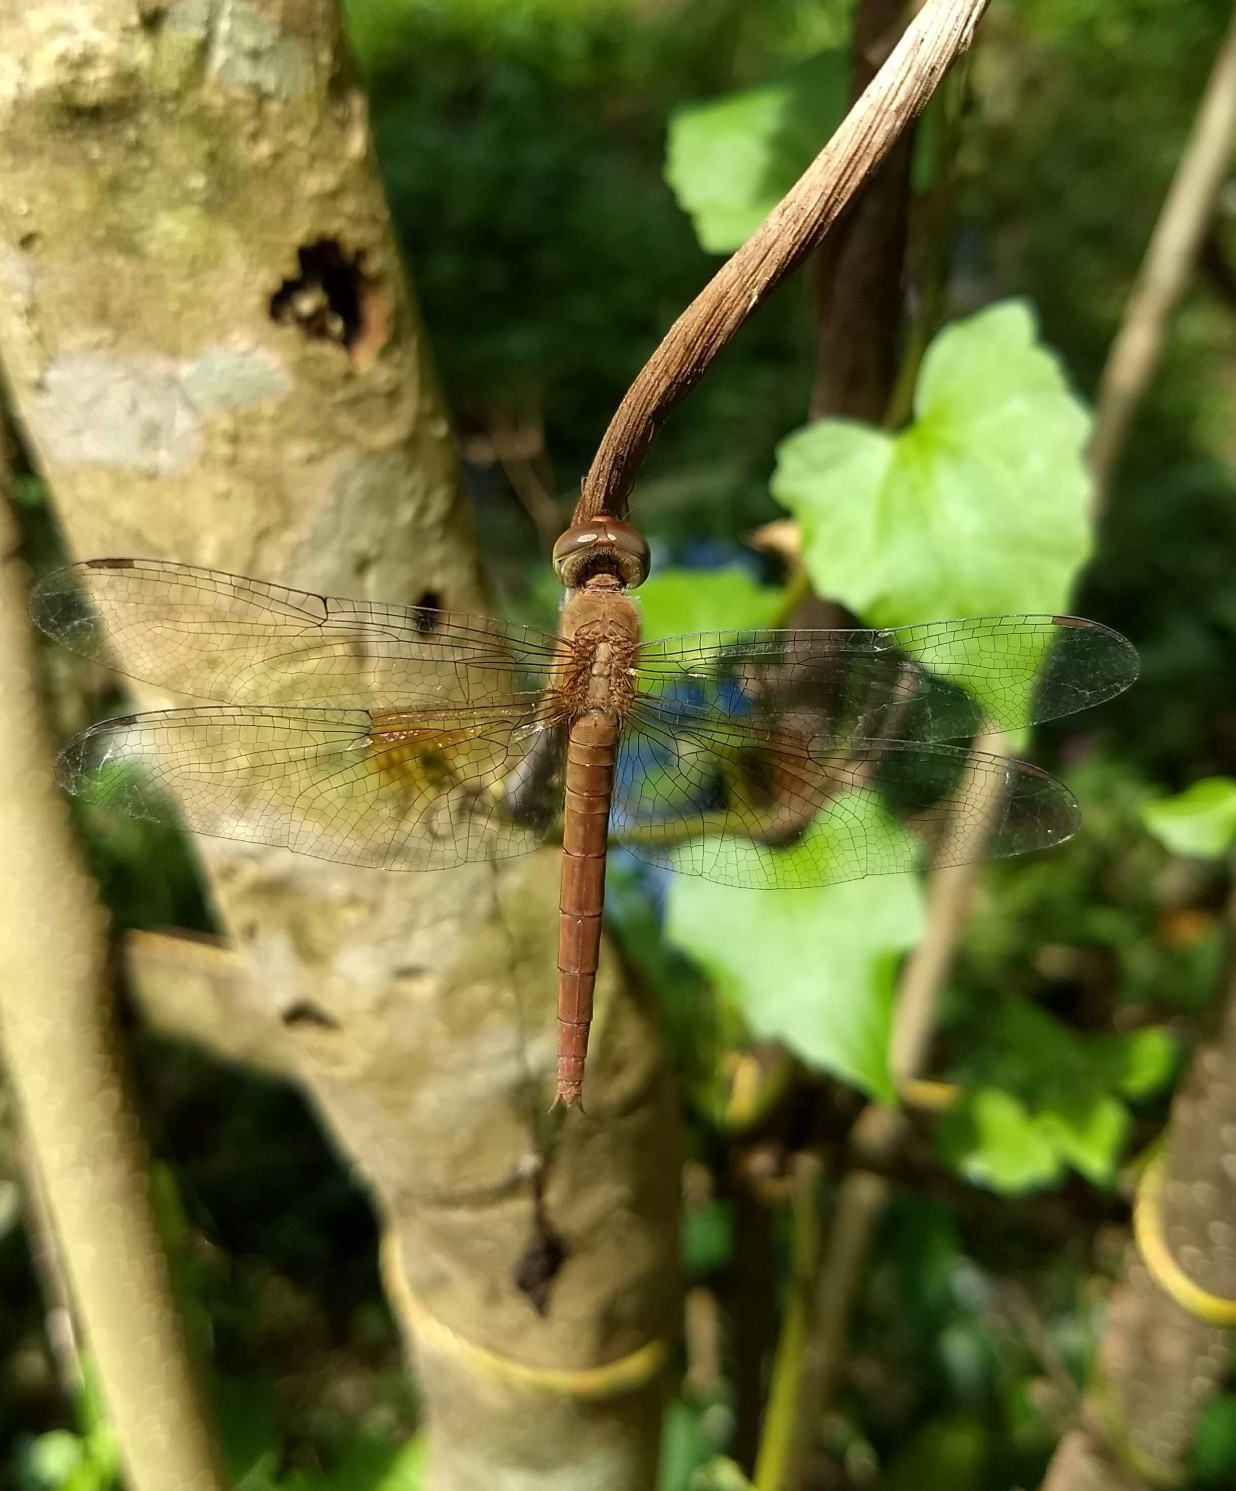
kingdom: Animalia
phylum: Arthropoda
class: Insecta
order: Odonata
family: Libellulidae
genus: Tholymis
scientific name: Tholymis tillarga
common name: Coral-tailed cloud wing
